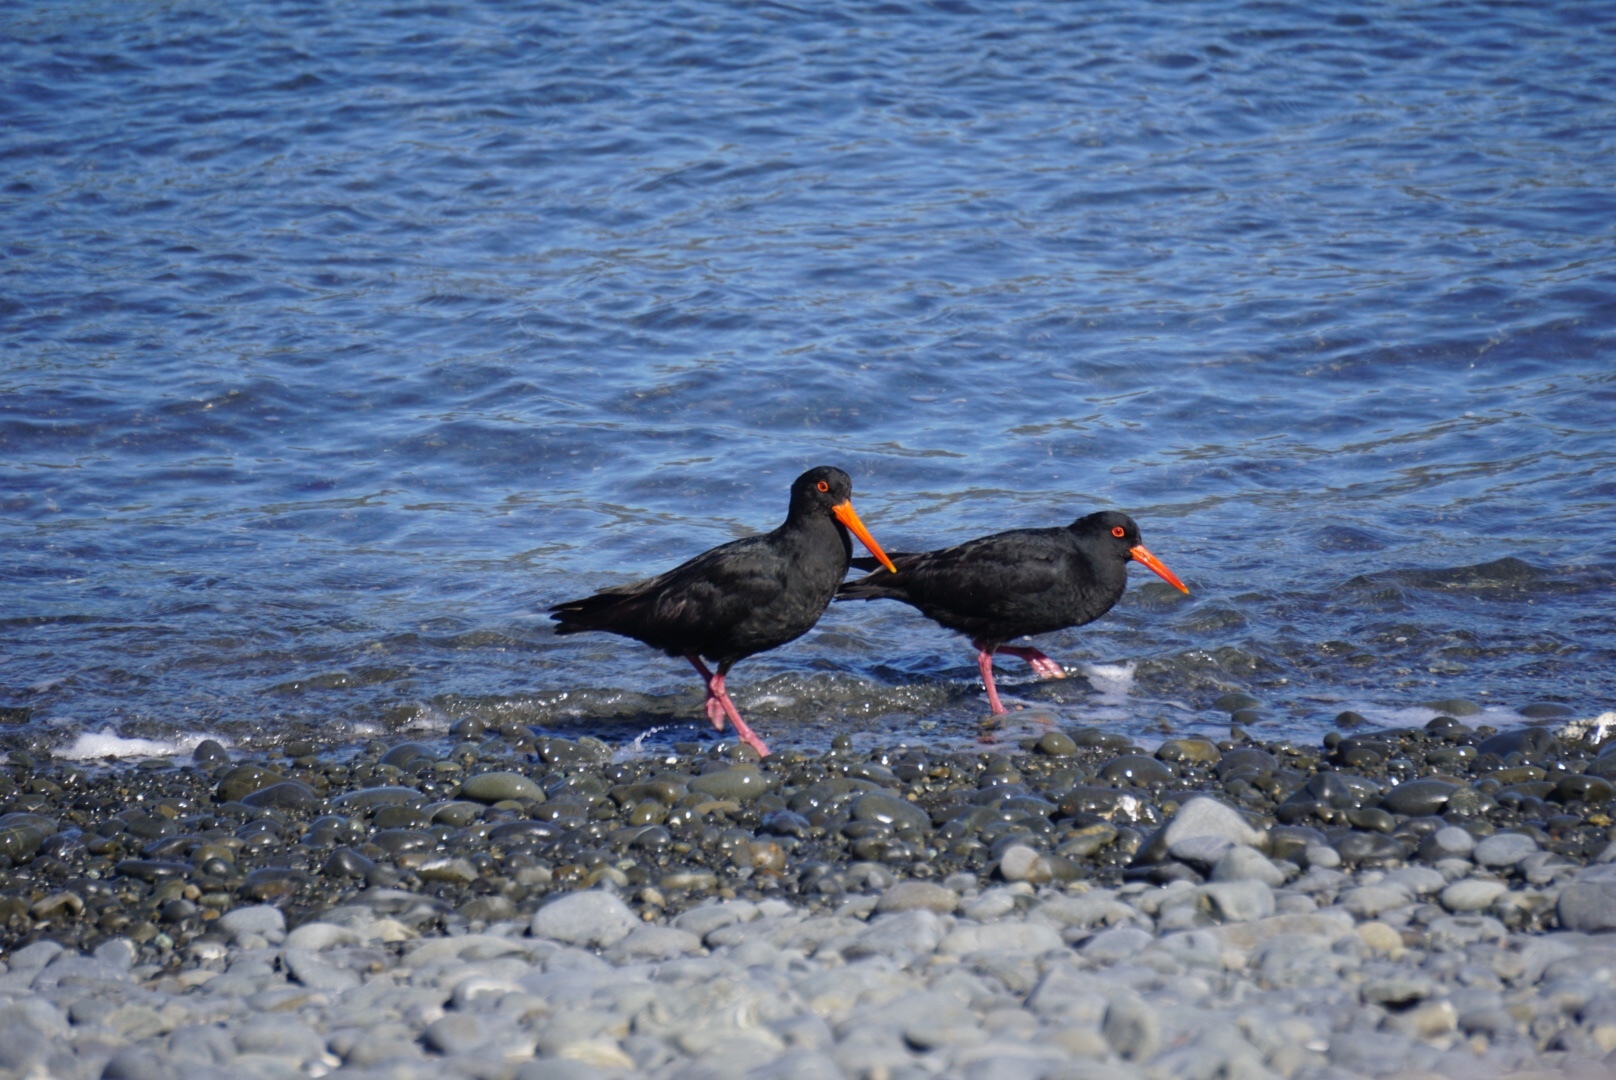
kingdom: Animalia
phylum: Chordata
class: Aves
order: Charadriiformes
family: Haematopodidae
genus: Haematopus
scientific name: Haematopus unicolor
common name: Variable oystercatcher
